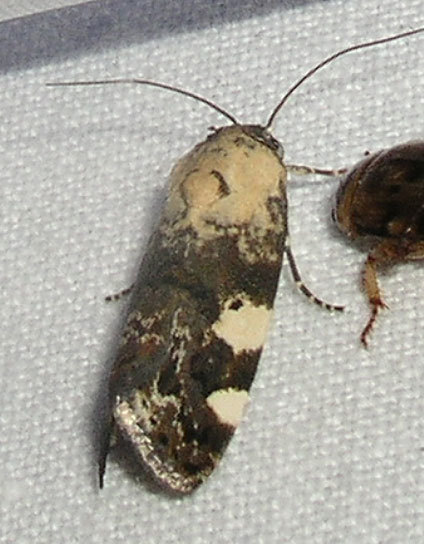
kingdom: Animalia
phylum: Arthropoda
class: Insecta
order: Lepidoptera
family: Noctuidae
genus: Acontia
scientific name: Acontia aprica
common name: Nun
